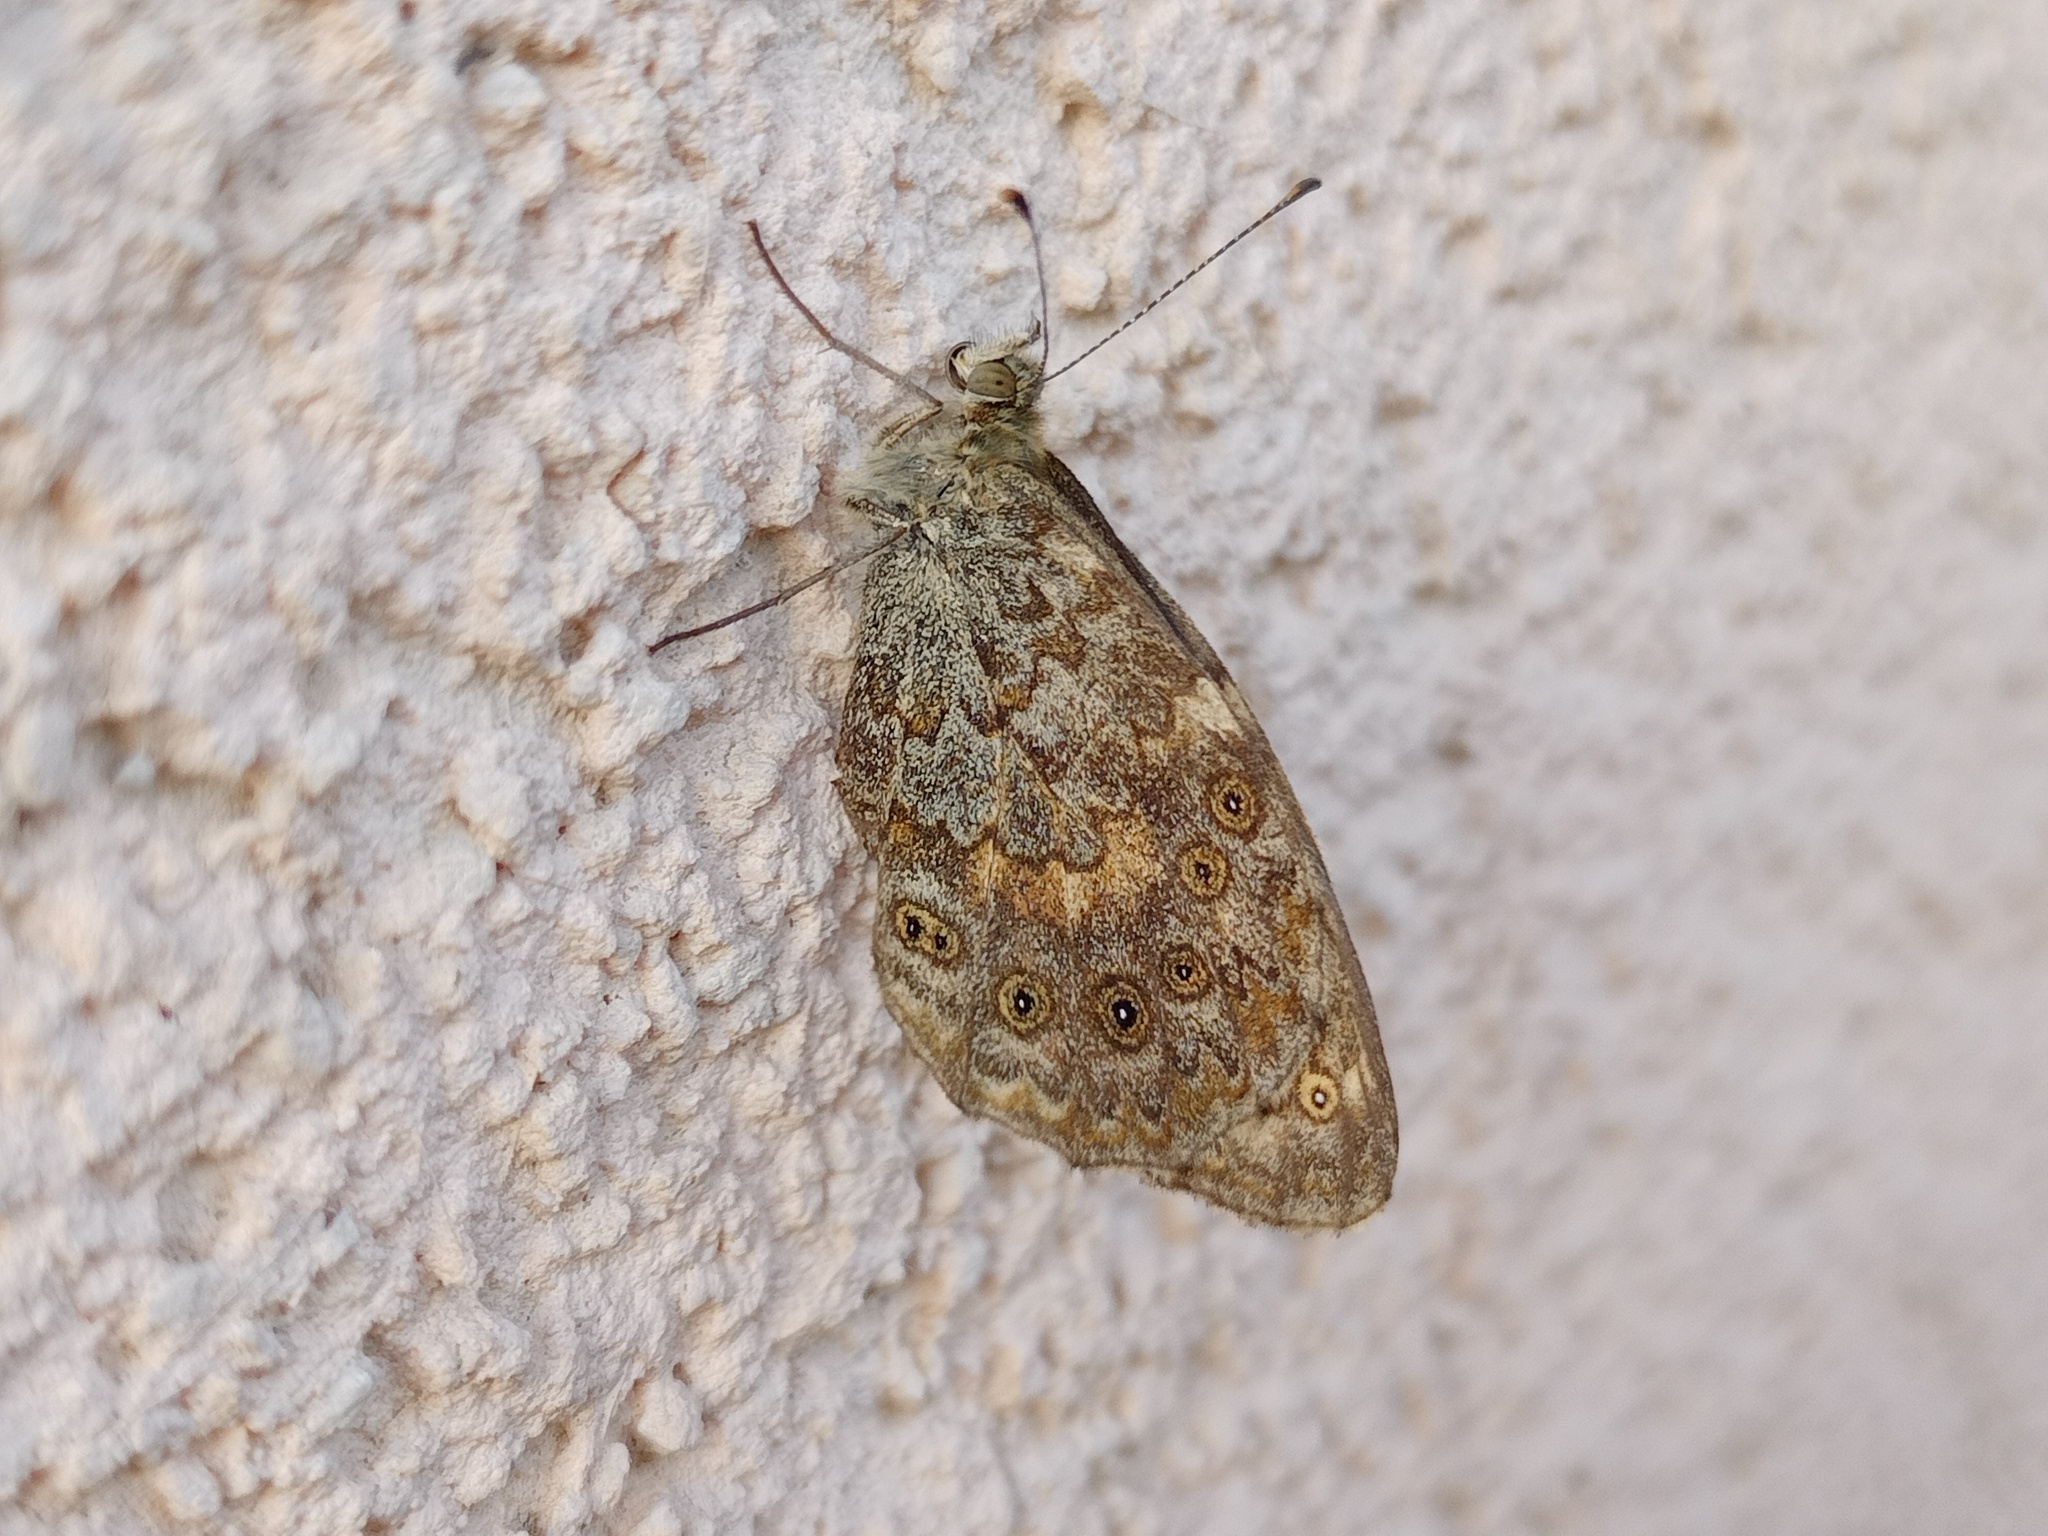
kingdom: Animalia
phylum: Arthropoda
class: Insecta
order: Lepidoptera
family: Nymphalidae
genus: Pararge
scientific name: Pararge Lasiommata megera
